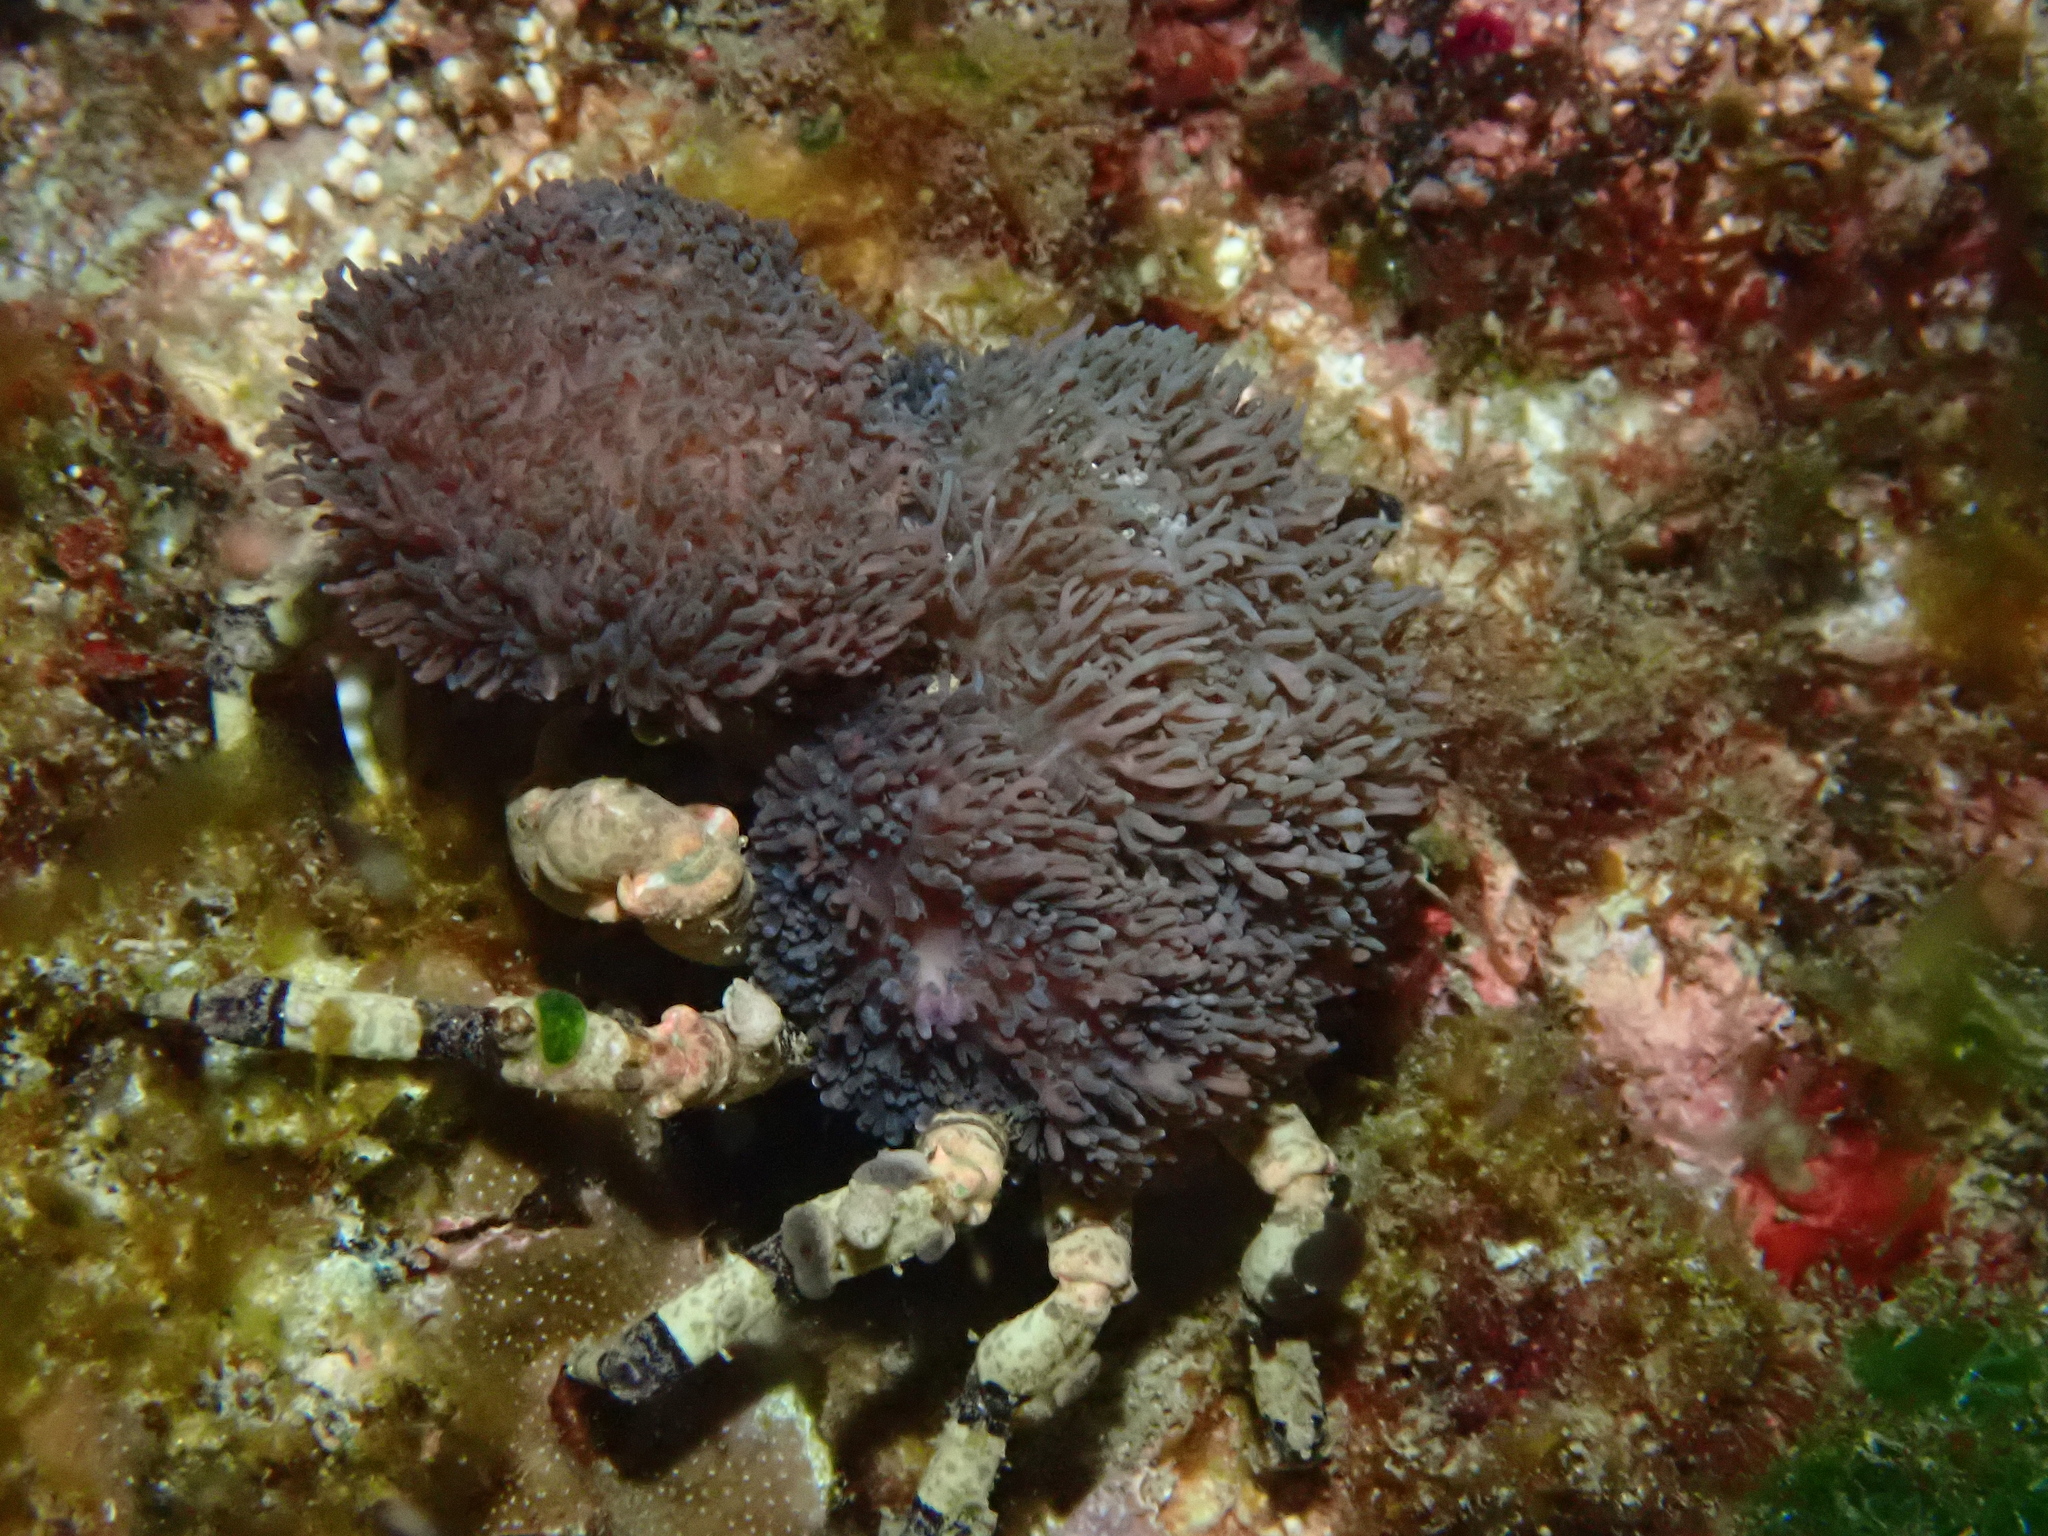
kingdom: Animalia
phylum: Arthropoda
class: Malacostraca
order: Decapoda
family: Epialtidae
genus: Cyclocoeloma
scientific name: Cyclocoeloma tuberculatum
